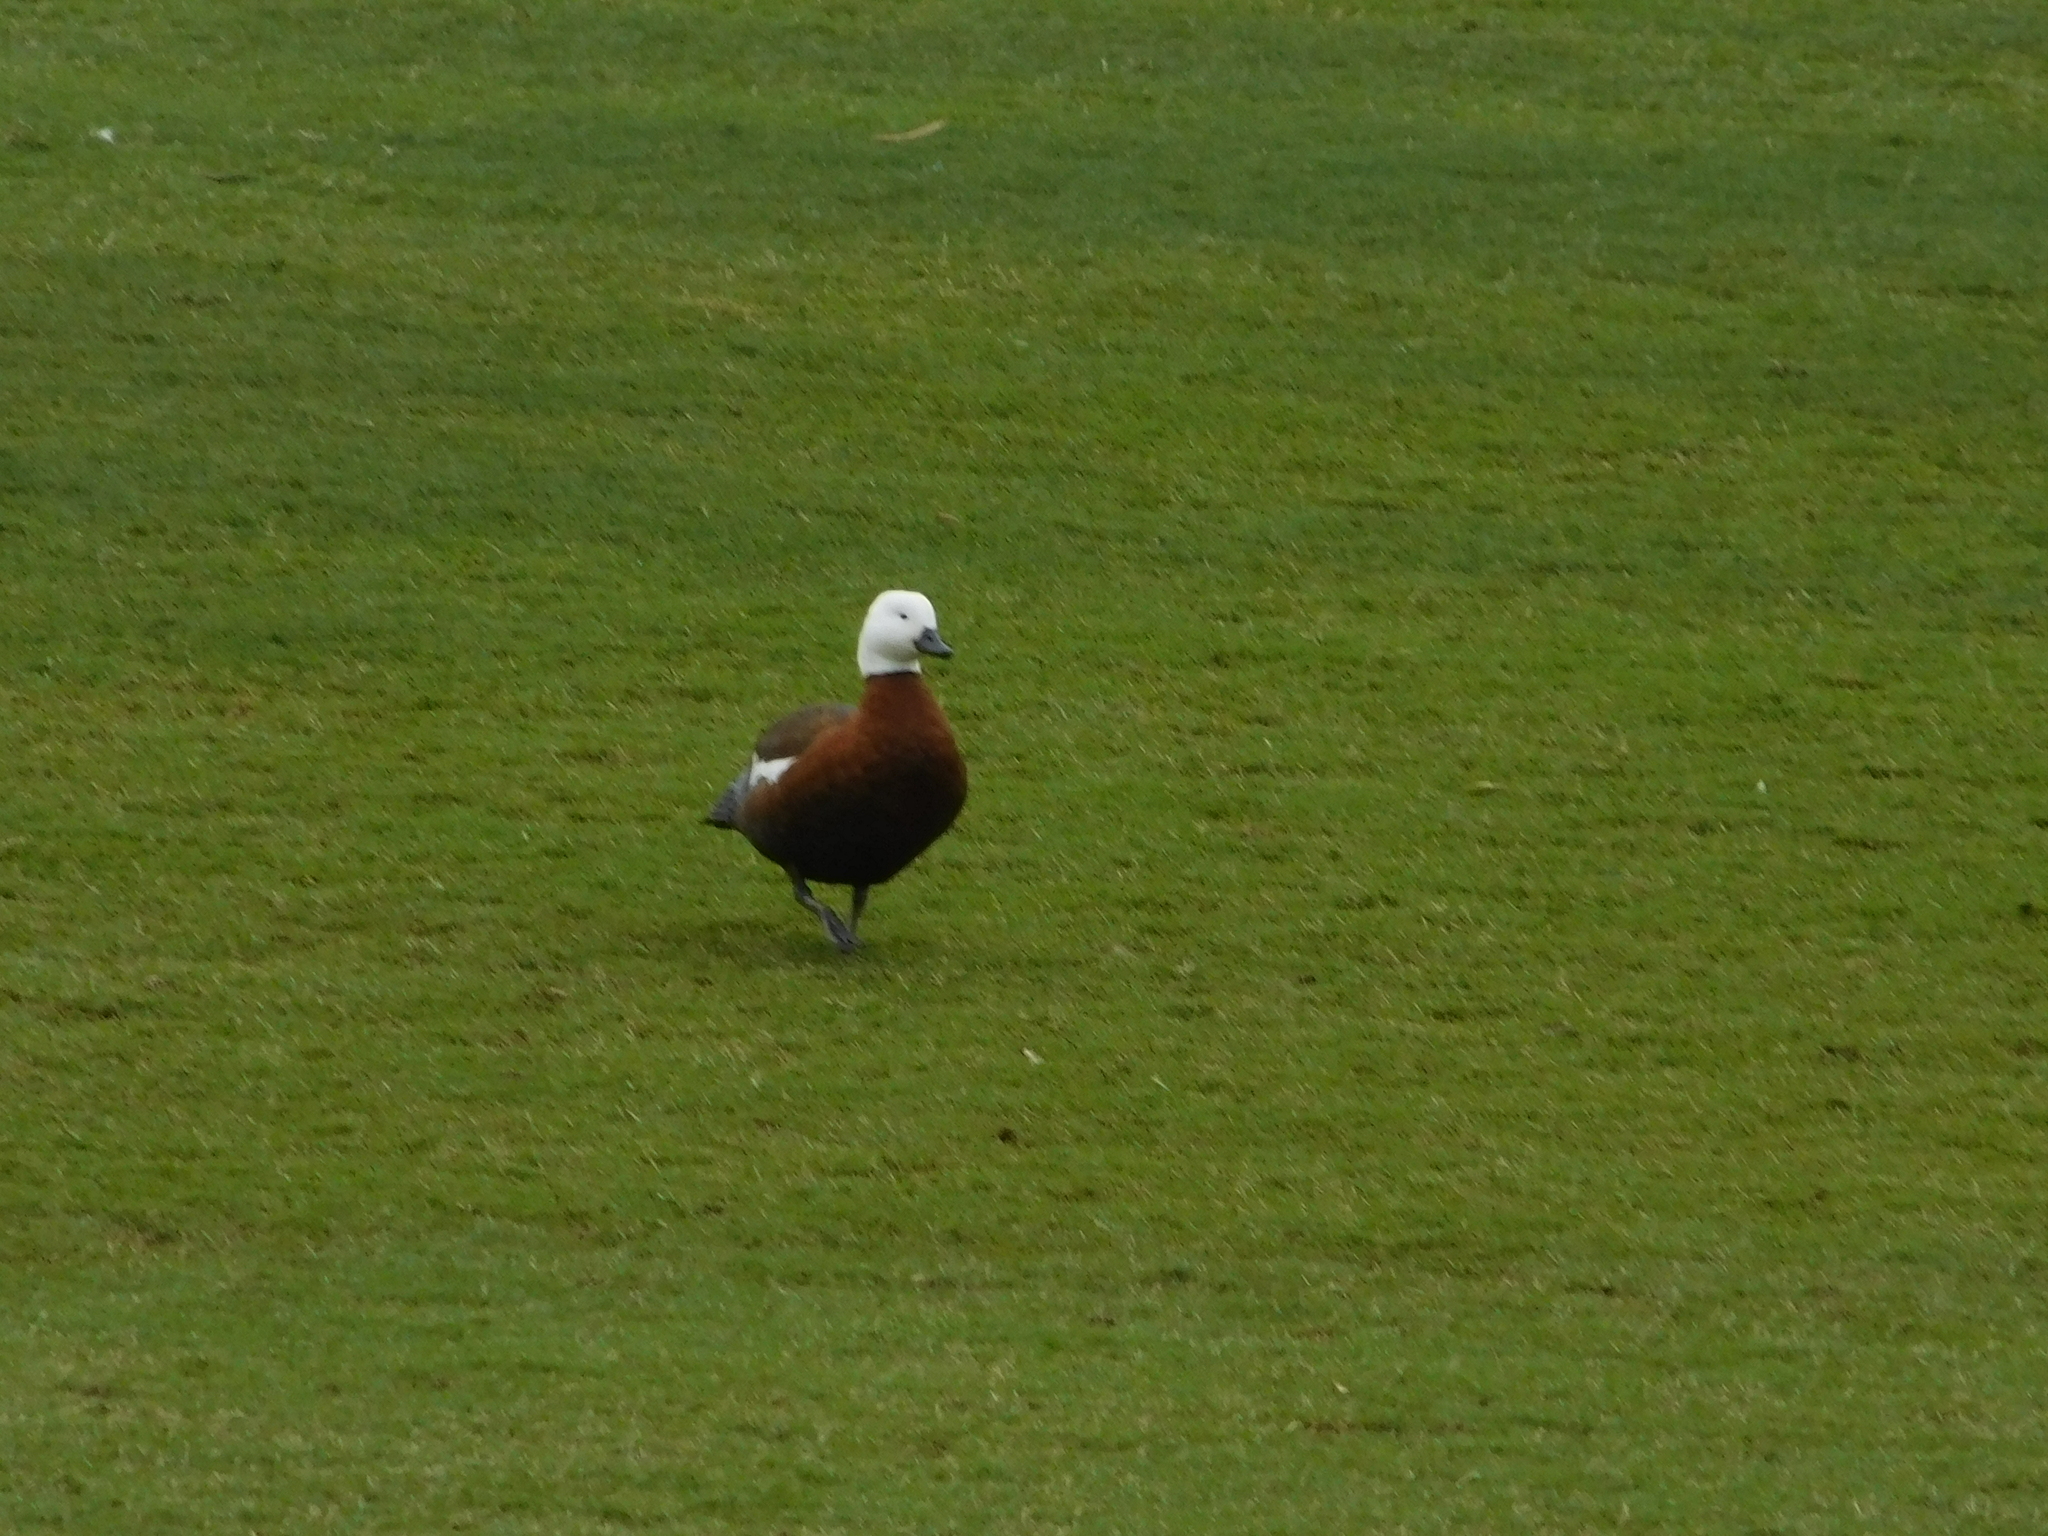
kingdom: Animalia
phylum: Chordata
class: Aves
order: Anseriformes
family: Anatidae
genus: Tadorna
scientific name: Tadorna variegata
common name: Paradise shelduck
